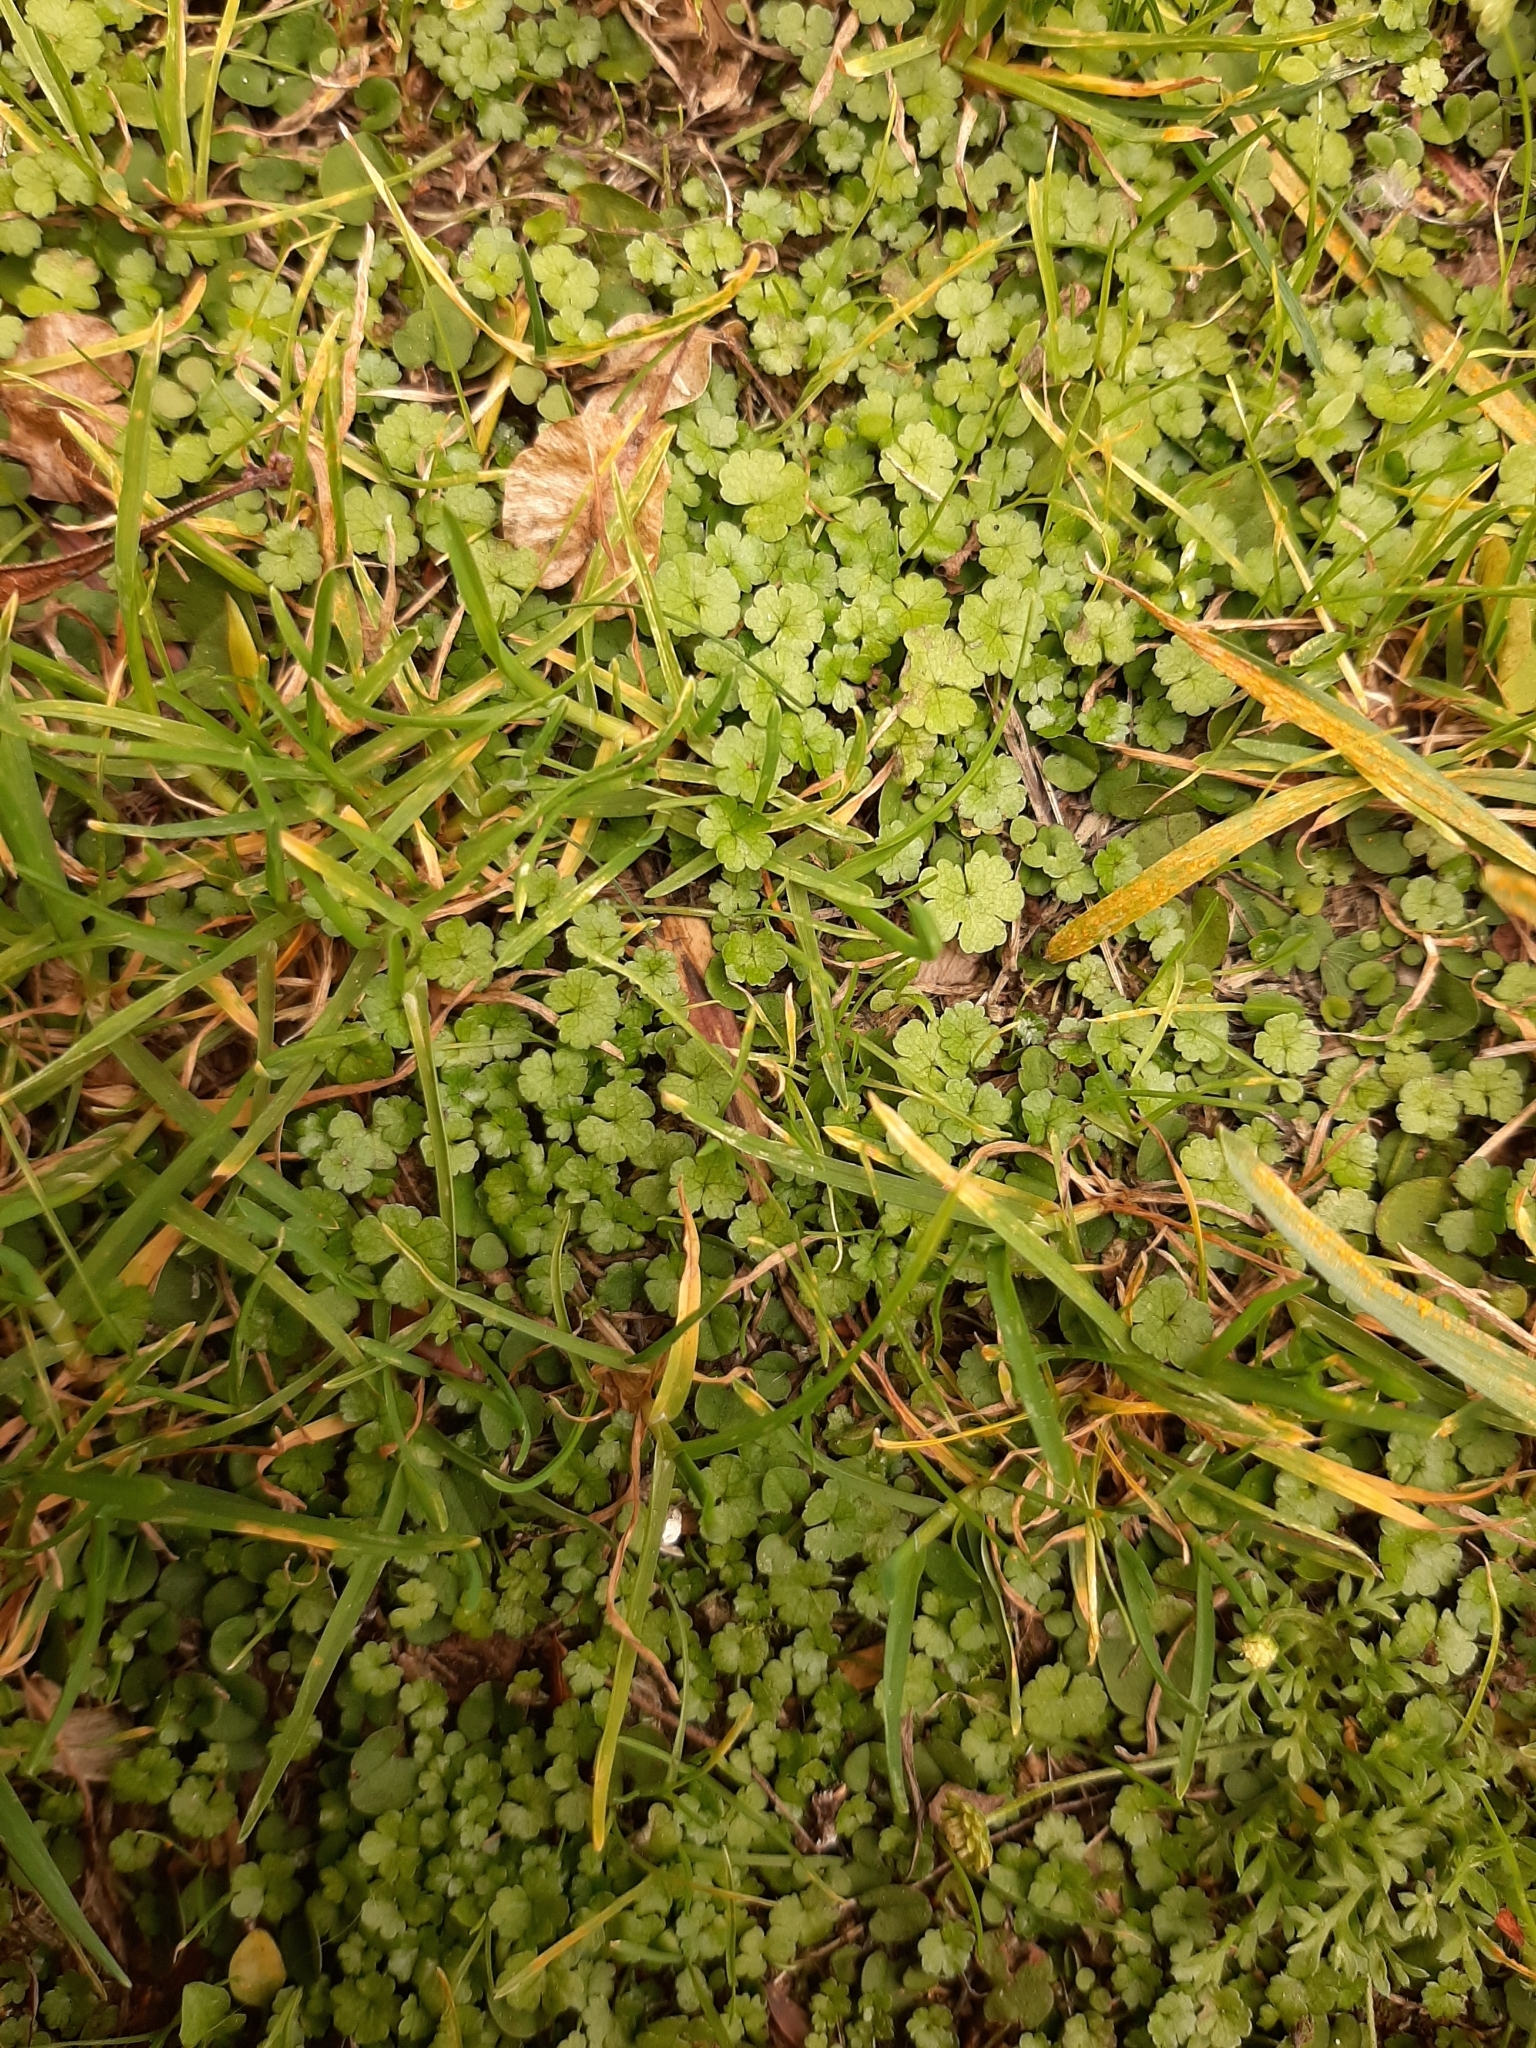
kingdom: Plantae
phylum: Tracheophyta
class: Magnoliopsida
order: Apiales
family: Araliaceae
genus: Hydrocotyle
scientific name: Hydrocotyle heteromeria
